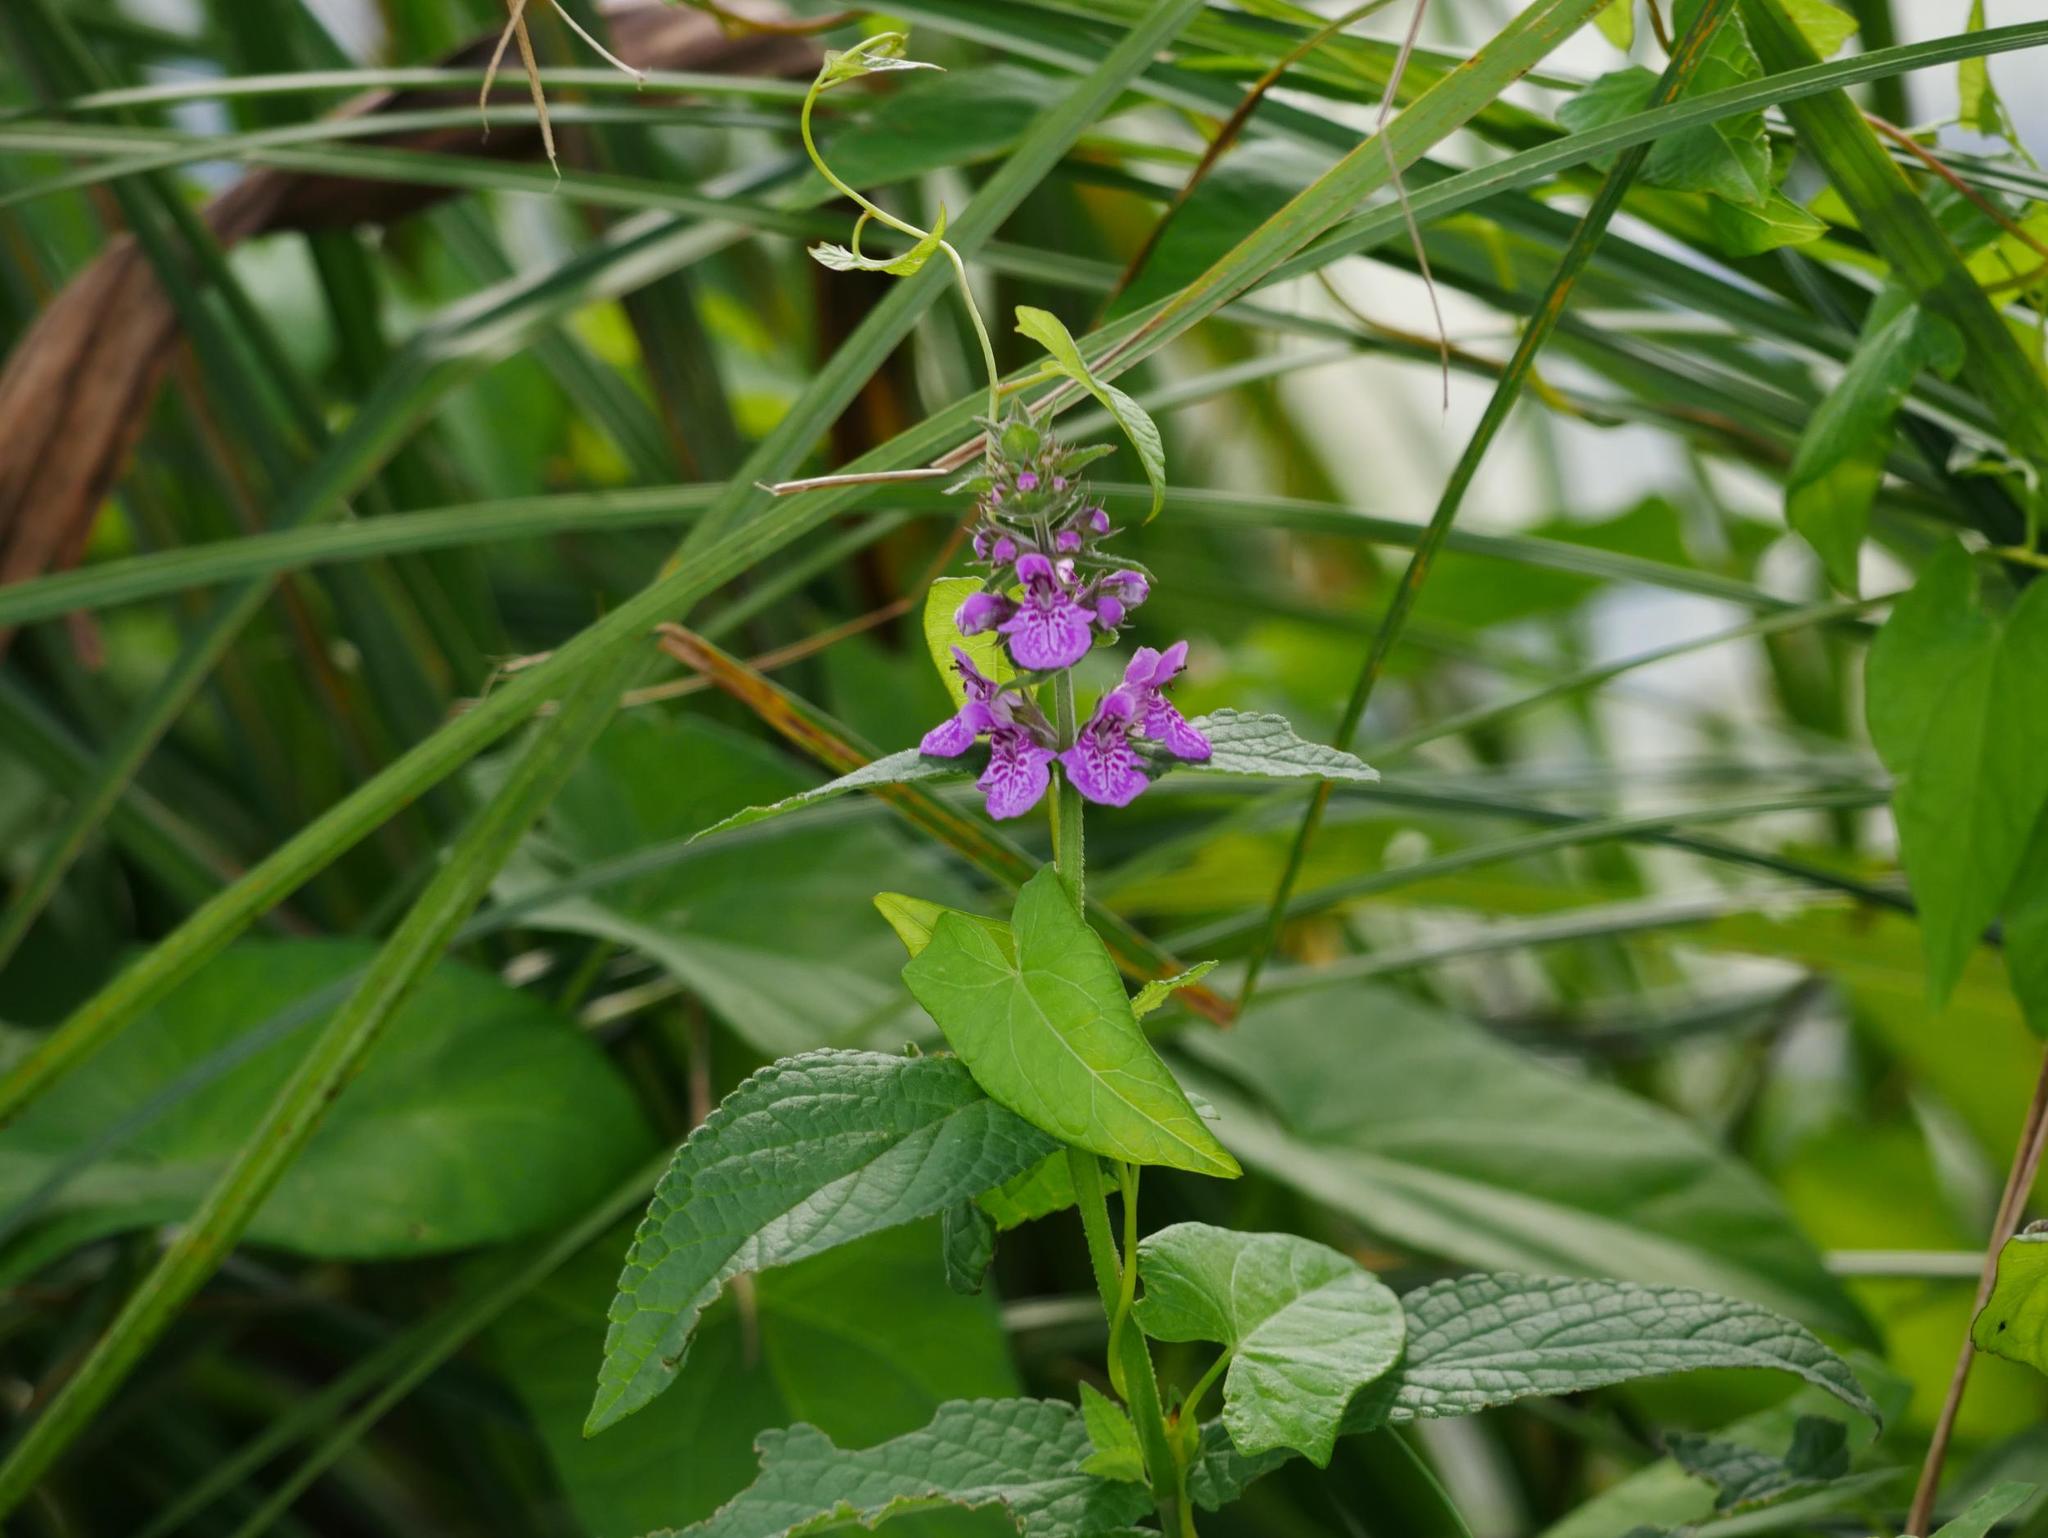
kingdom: Plantae
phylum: Tracheophyta
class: Magnoliopsida
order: Lamiales
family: Lamiaceae
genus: Stachys
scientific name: Stachys palustris
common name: Marsh woundwort
